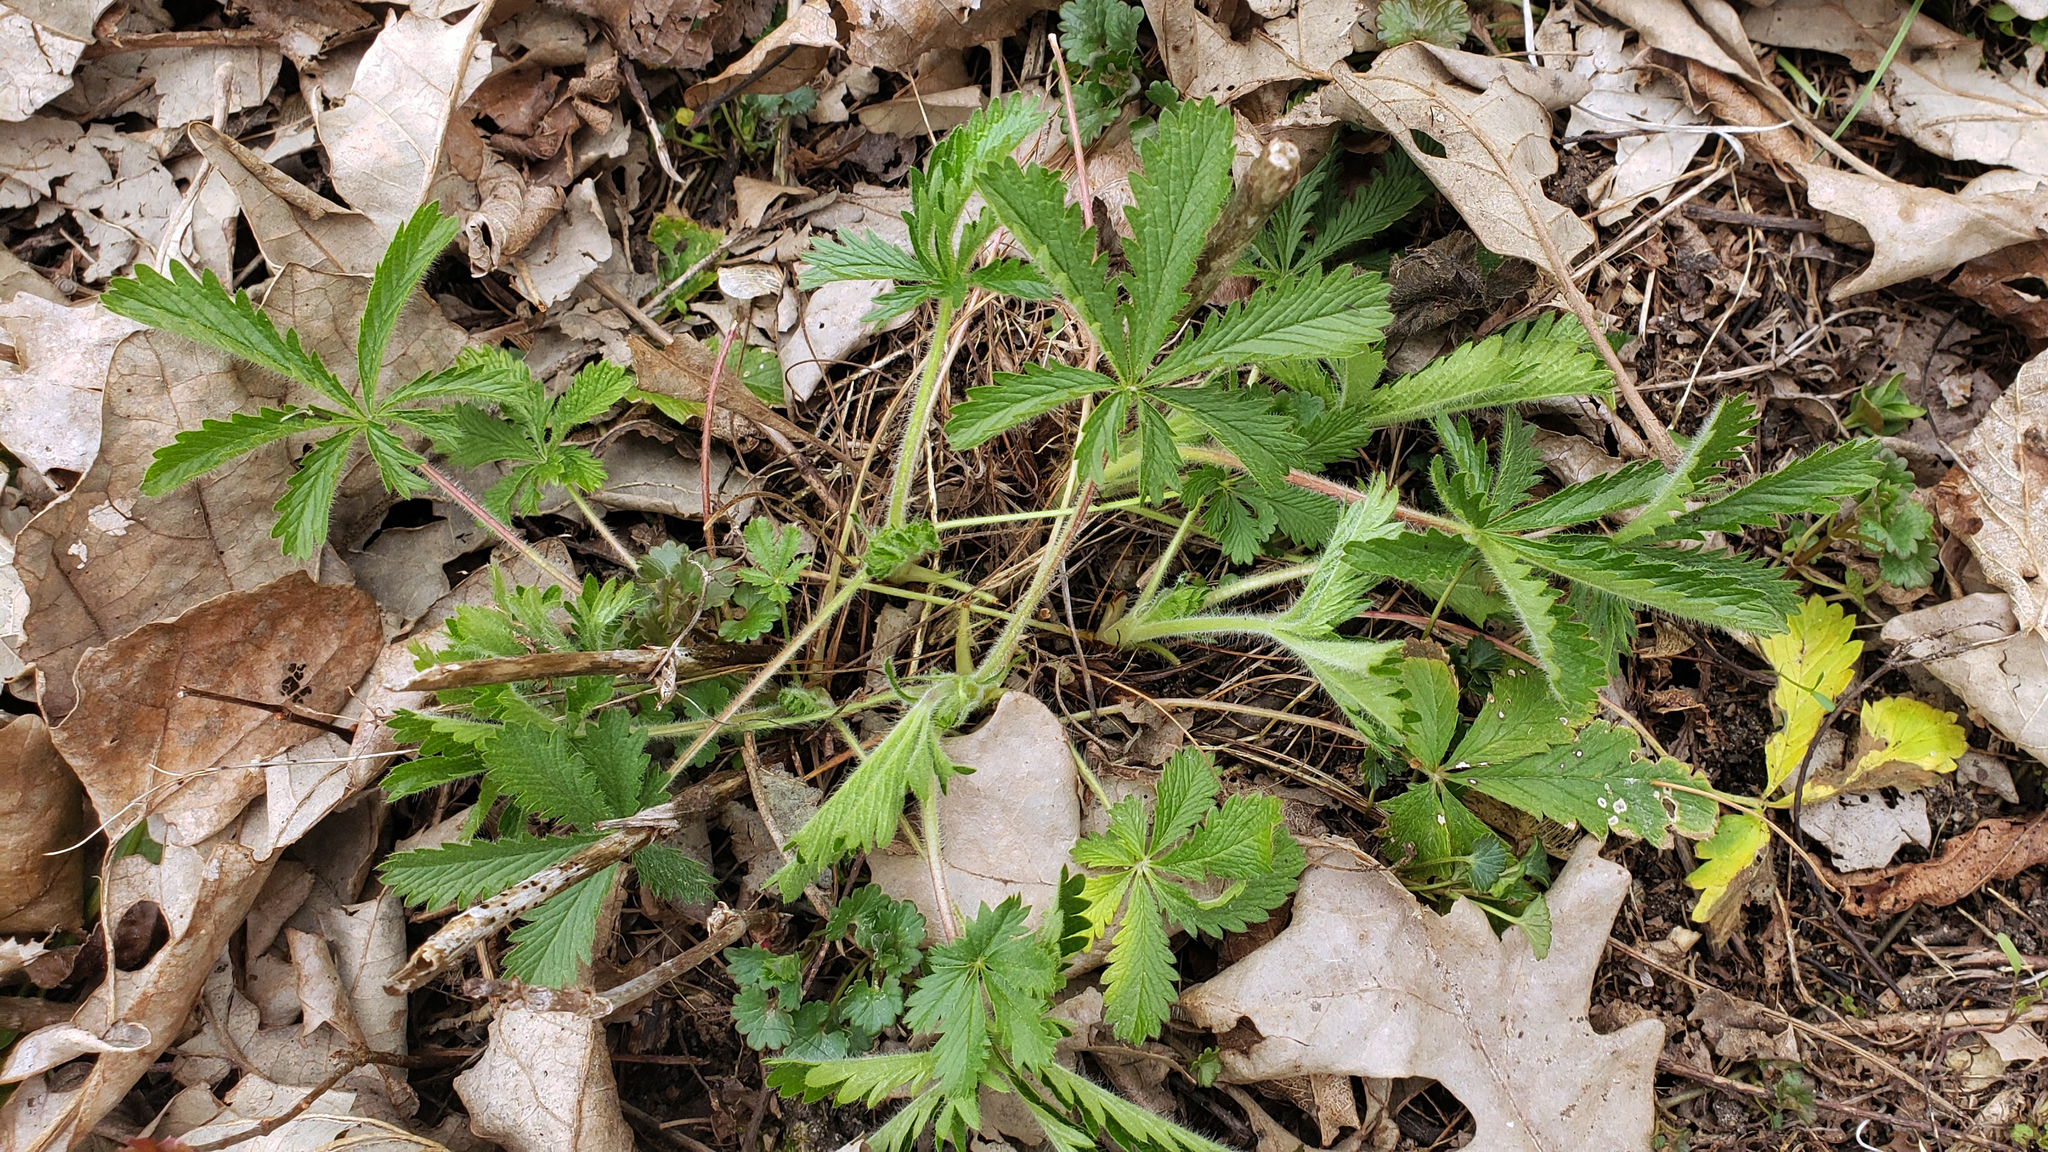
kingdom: Plantae
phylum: Tracheophyta
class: Magnoliopsida
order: Rosales
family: Rosaceae
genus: Potentilla
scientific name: Potentilla recta
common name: Sulphur cinquefoil
